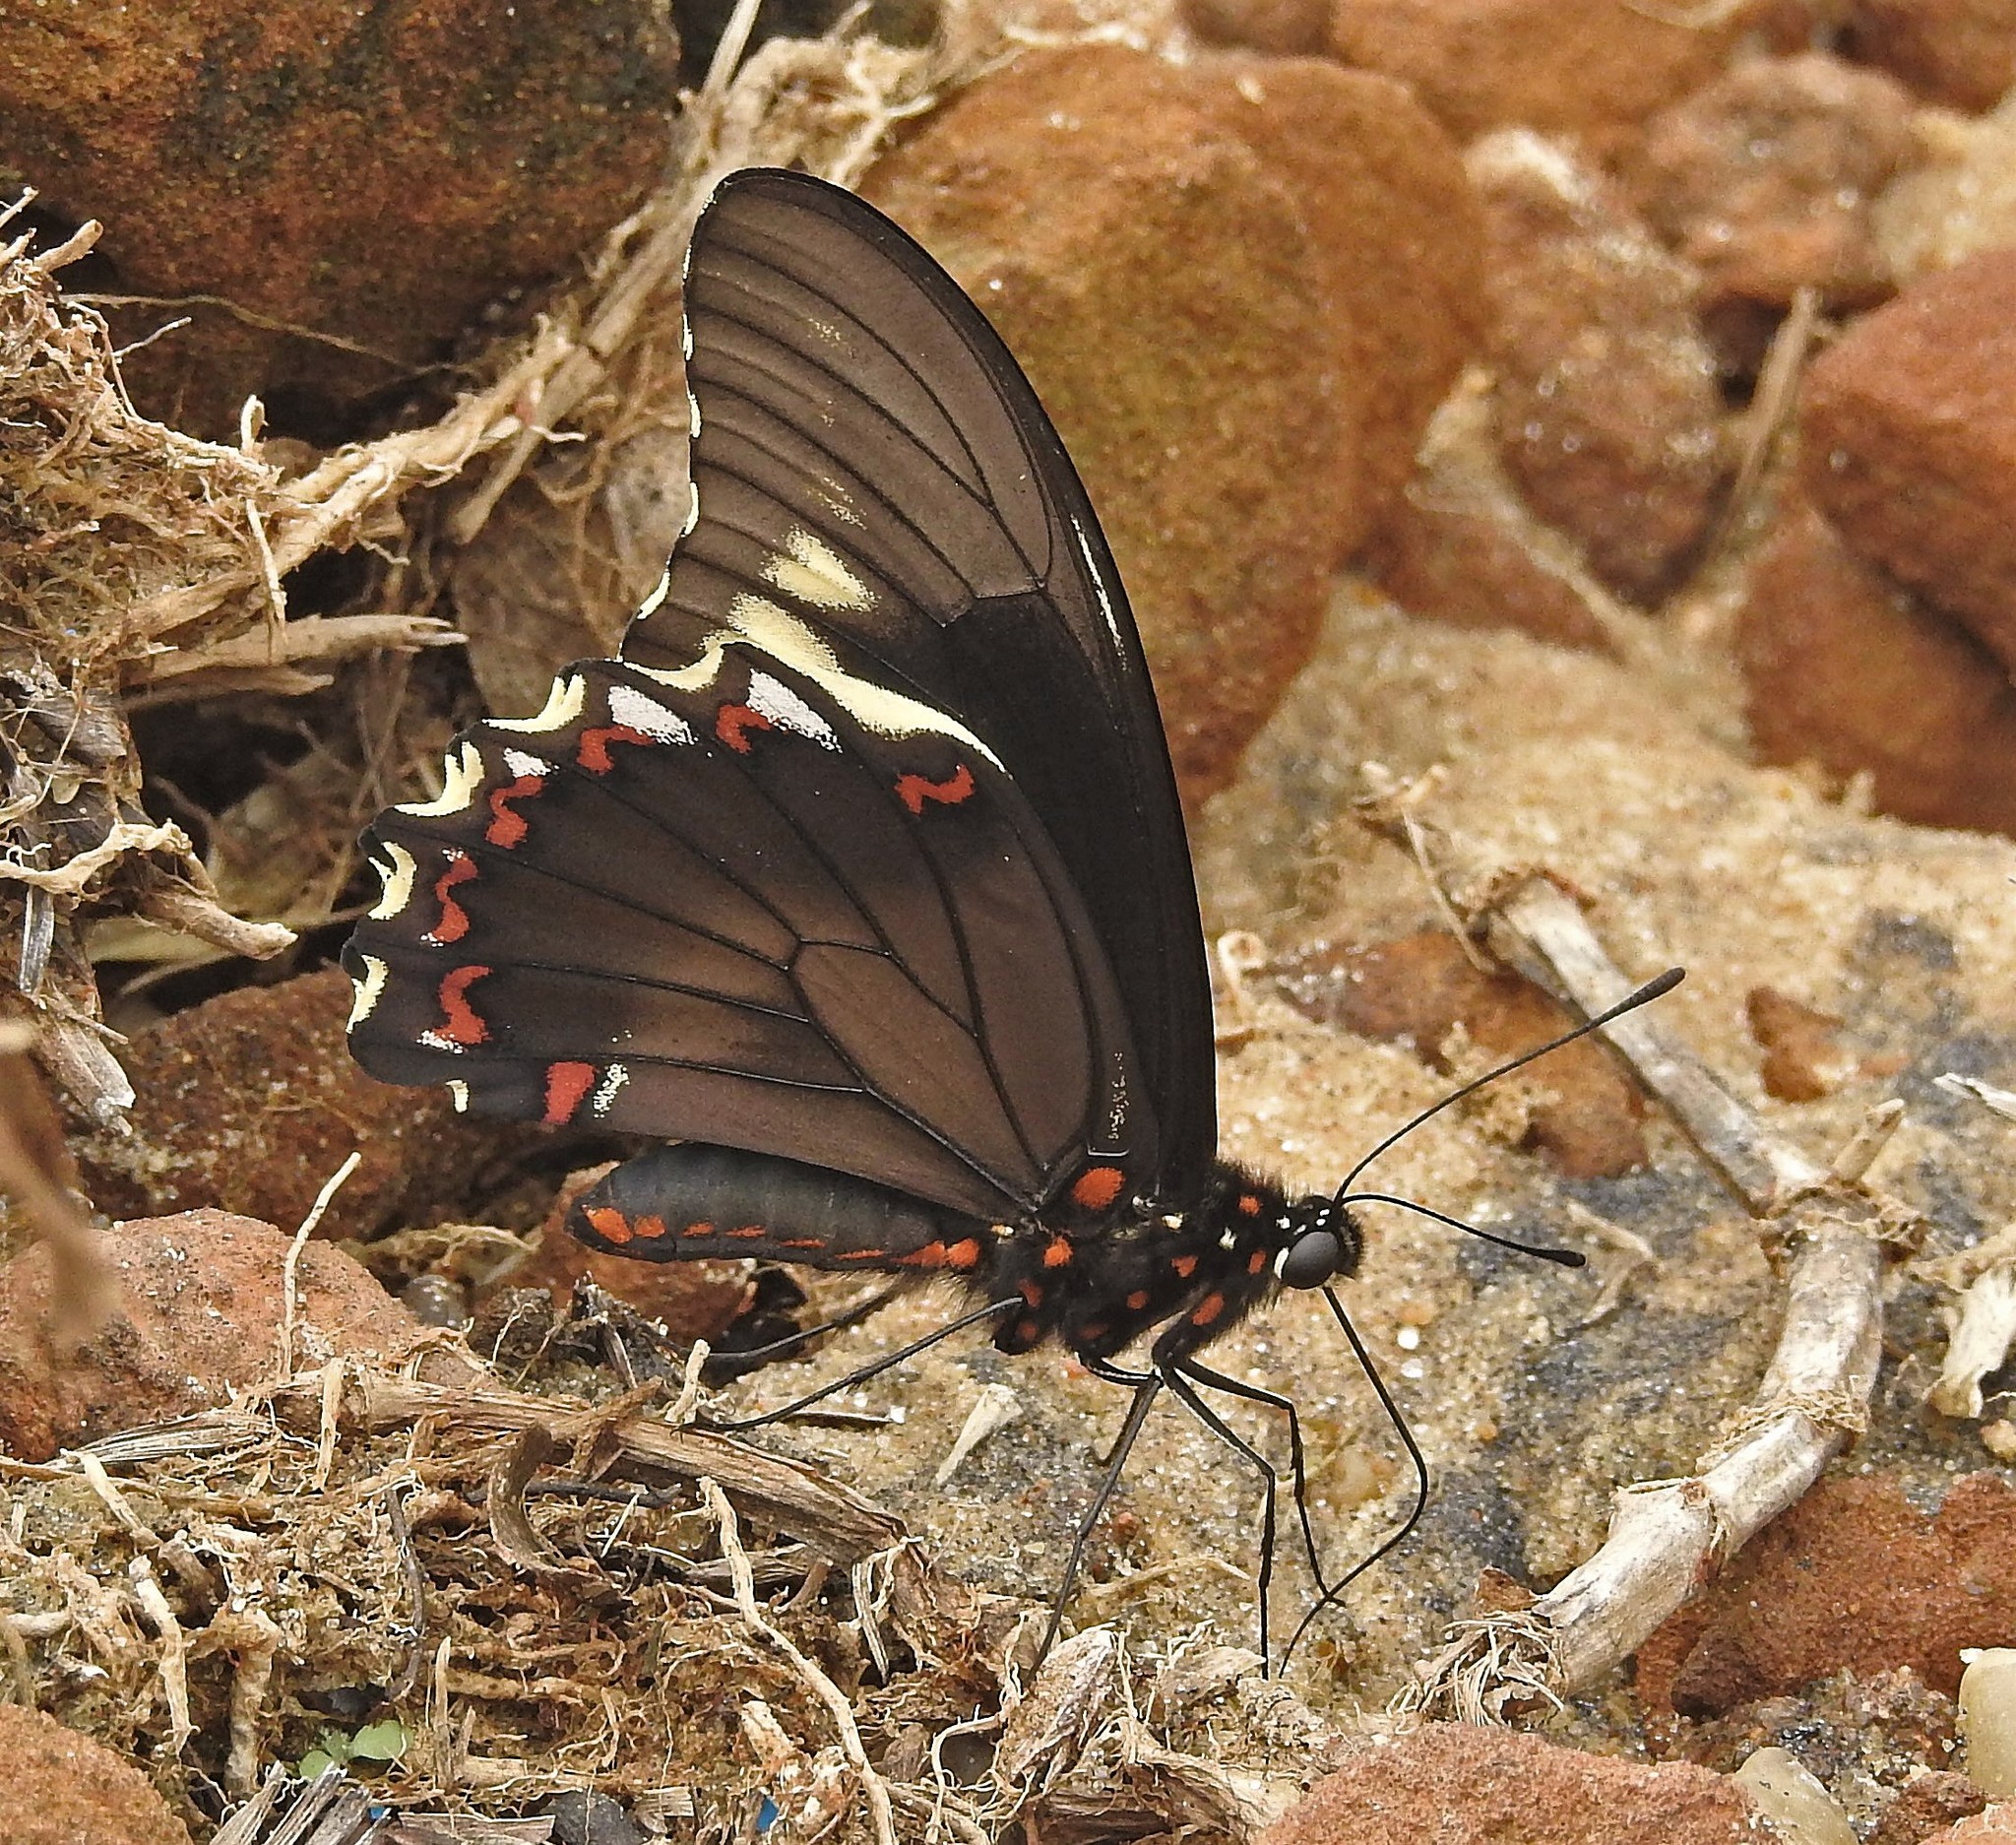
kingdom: Animalia
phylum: Arthropoda
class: Insecta
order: Lepidoptera
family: Papilionidae
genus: Battus
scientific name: Battus polydamas
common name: Polydamas swallowtail
